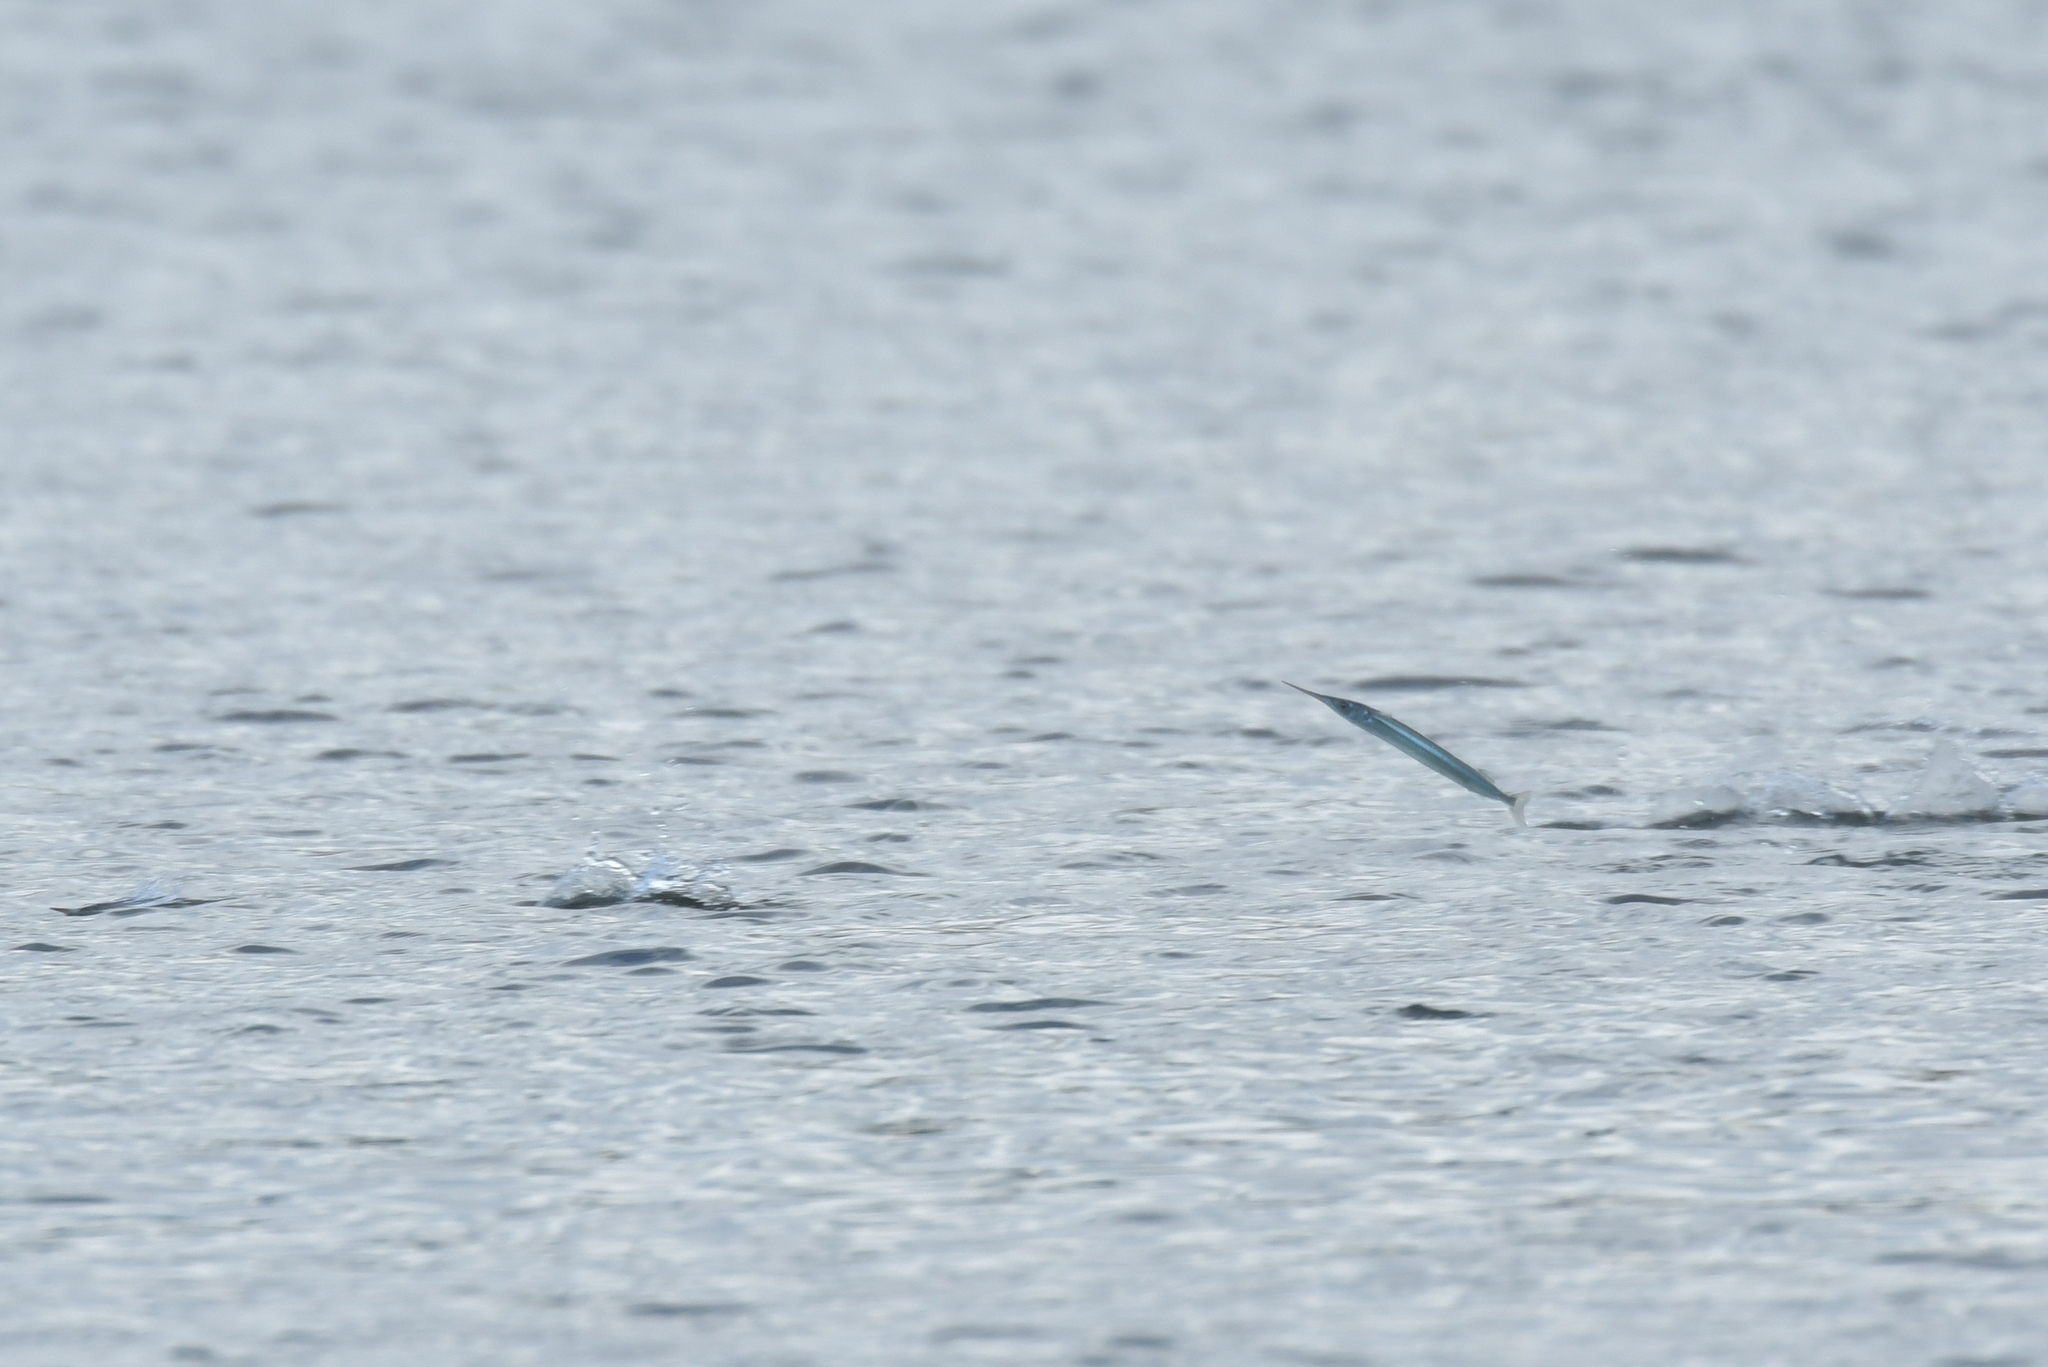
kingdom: Animalia
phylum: Chordata
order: Beloniformes
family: Hemiramphidae
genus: Hyporhamphus
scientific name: Hyporhamphus ihi
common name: Garfish
